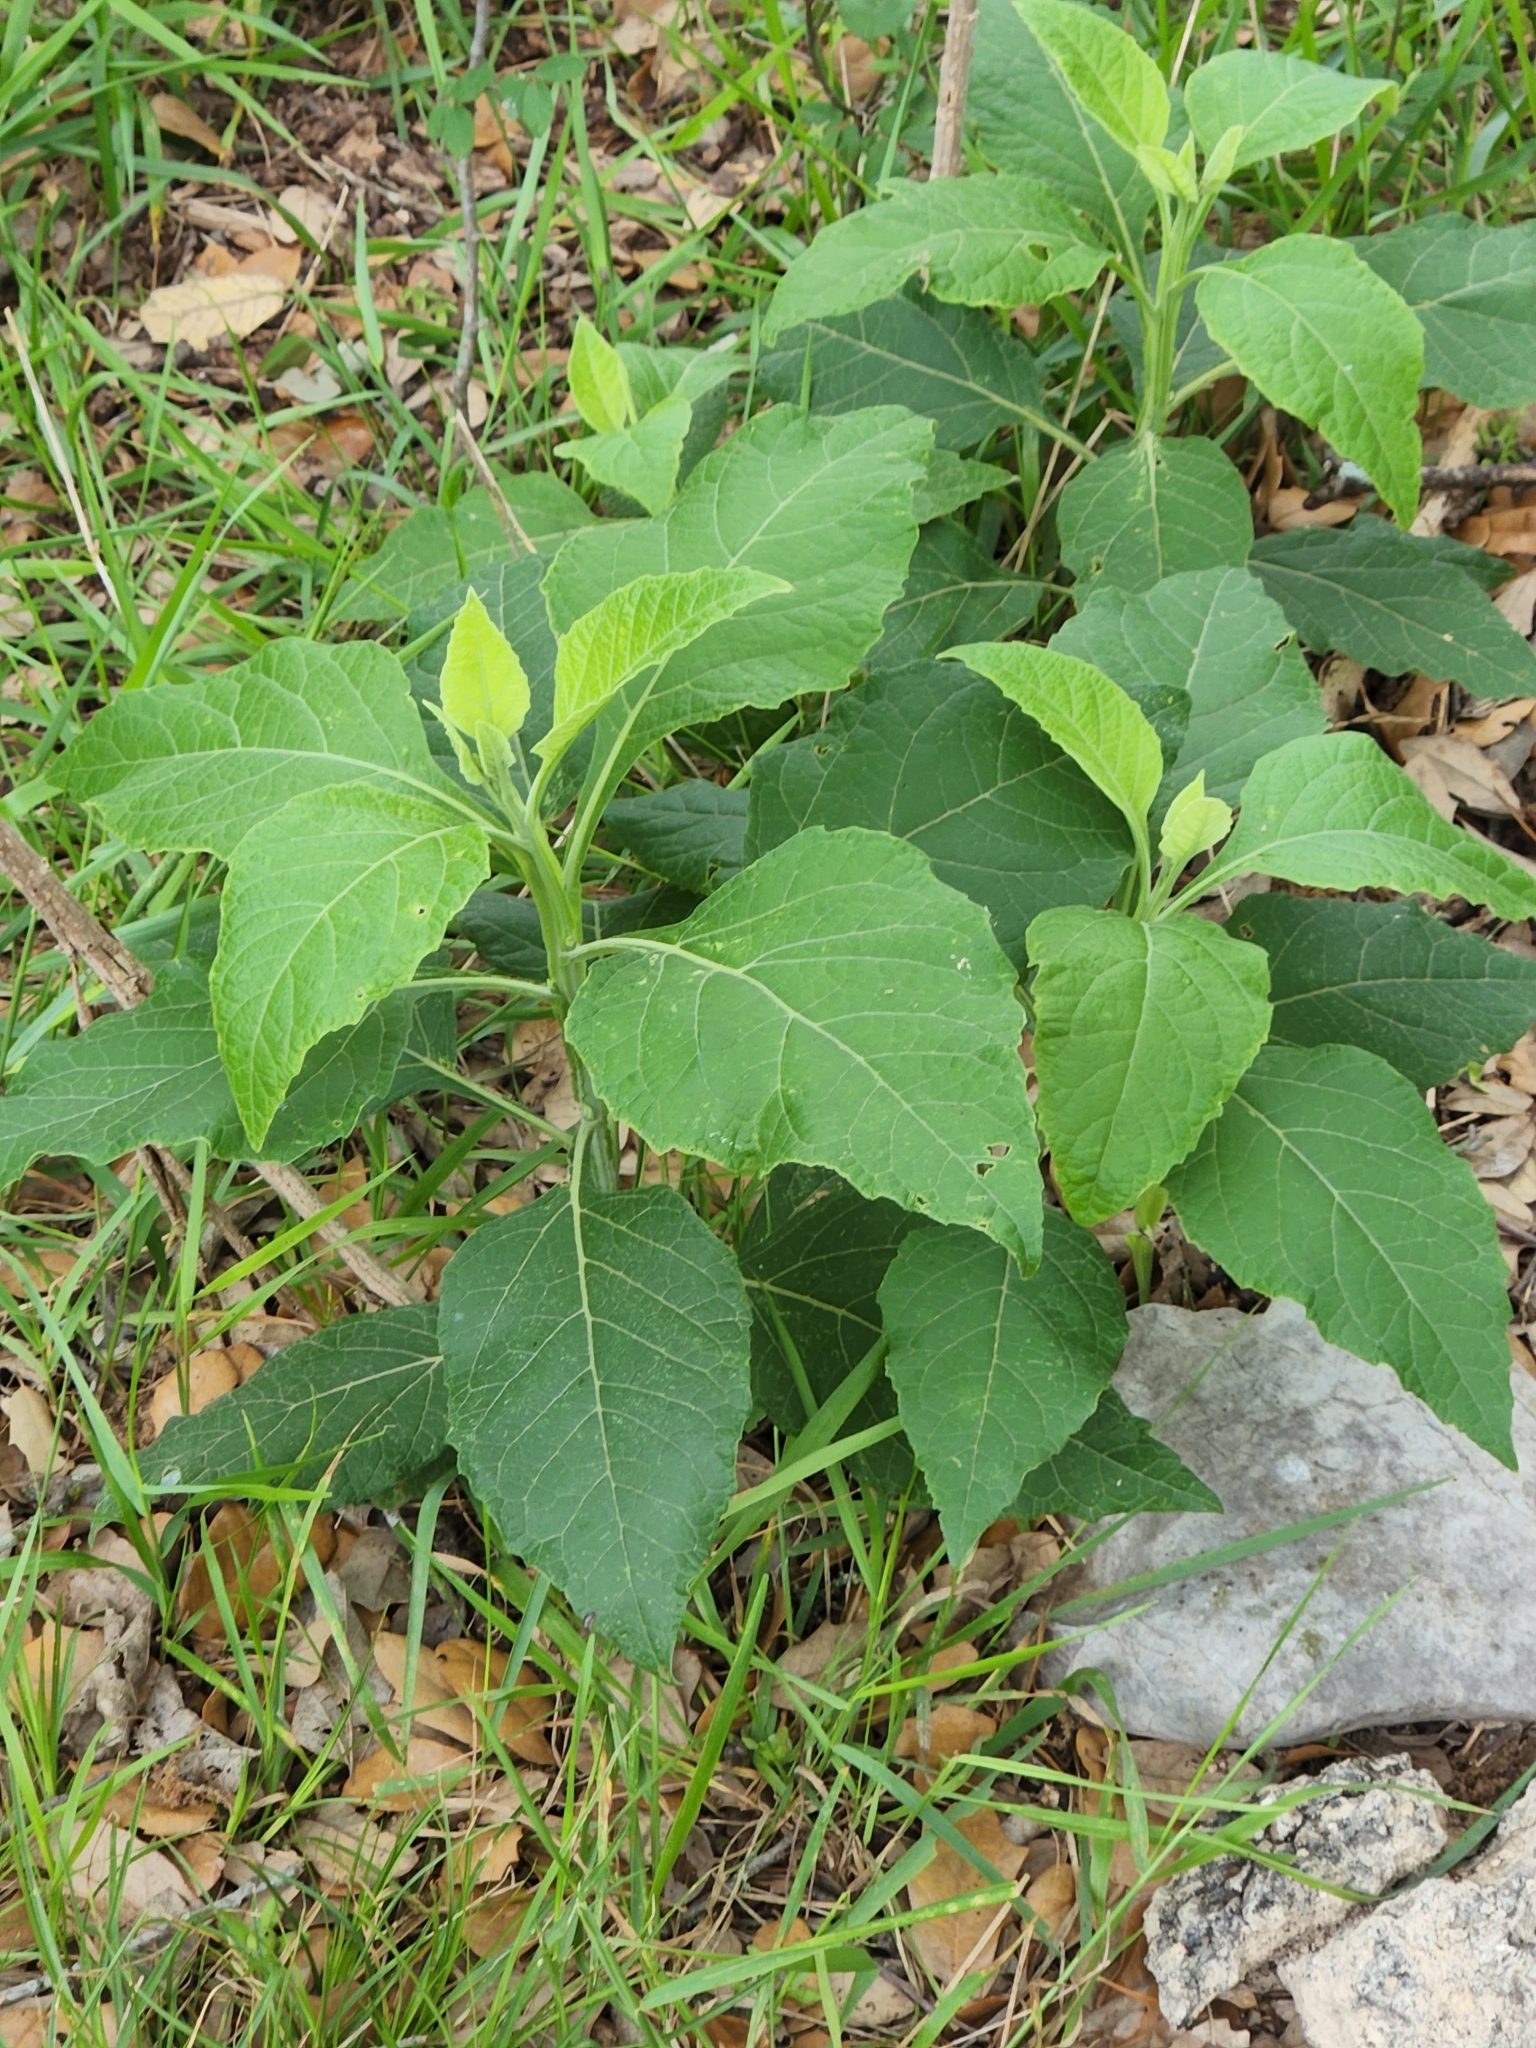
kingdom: Plantae
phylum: Tracheophyta
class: Magnoliopsida
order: Asterales
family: Asteraceae
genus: Verbesina
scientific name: Verbesina virginica
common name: Frostweed
